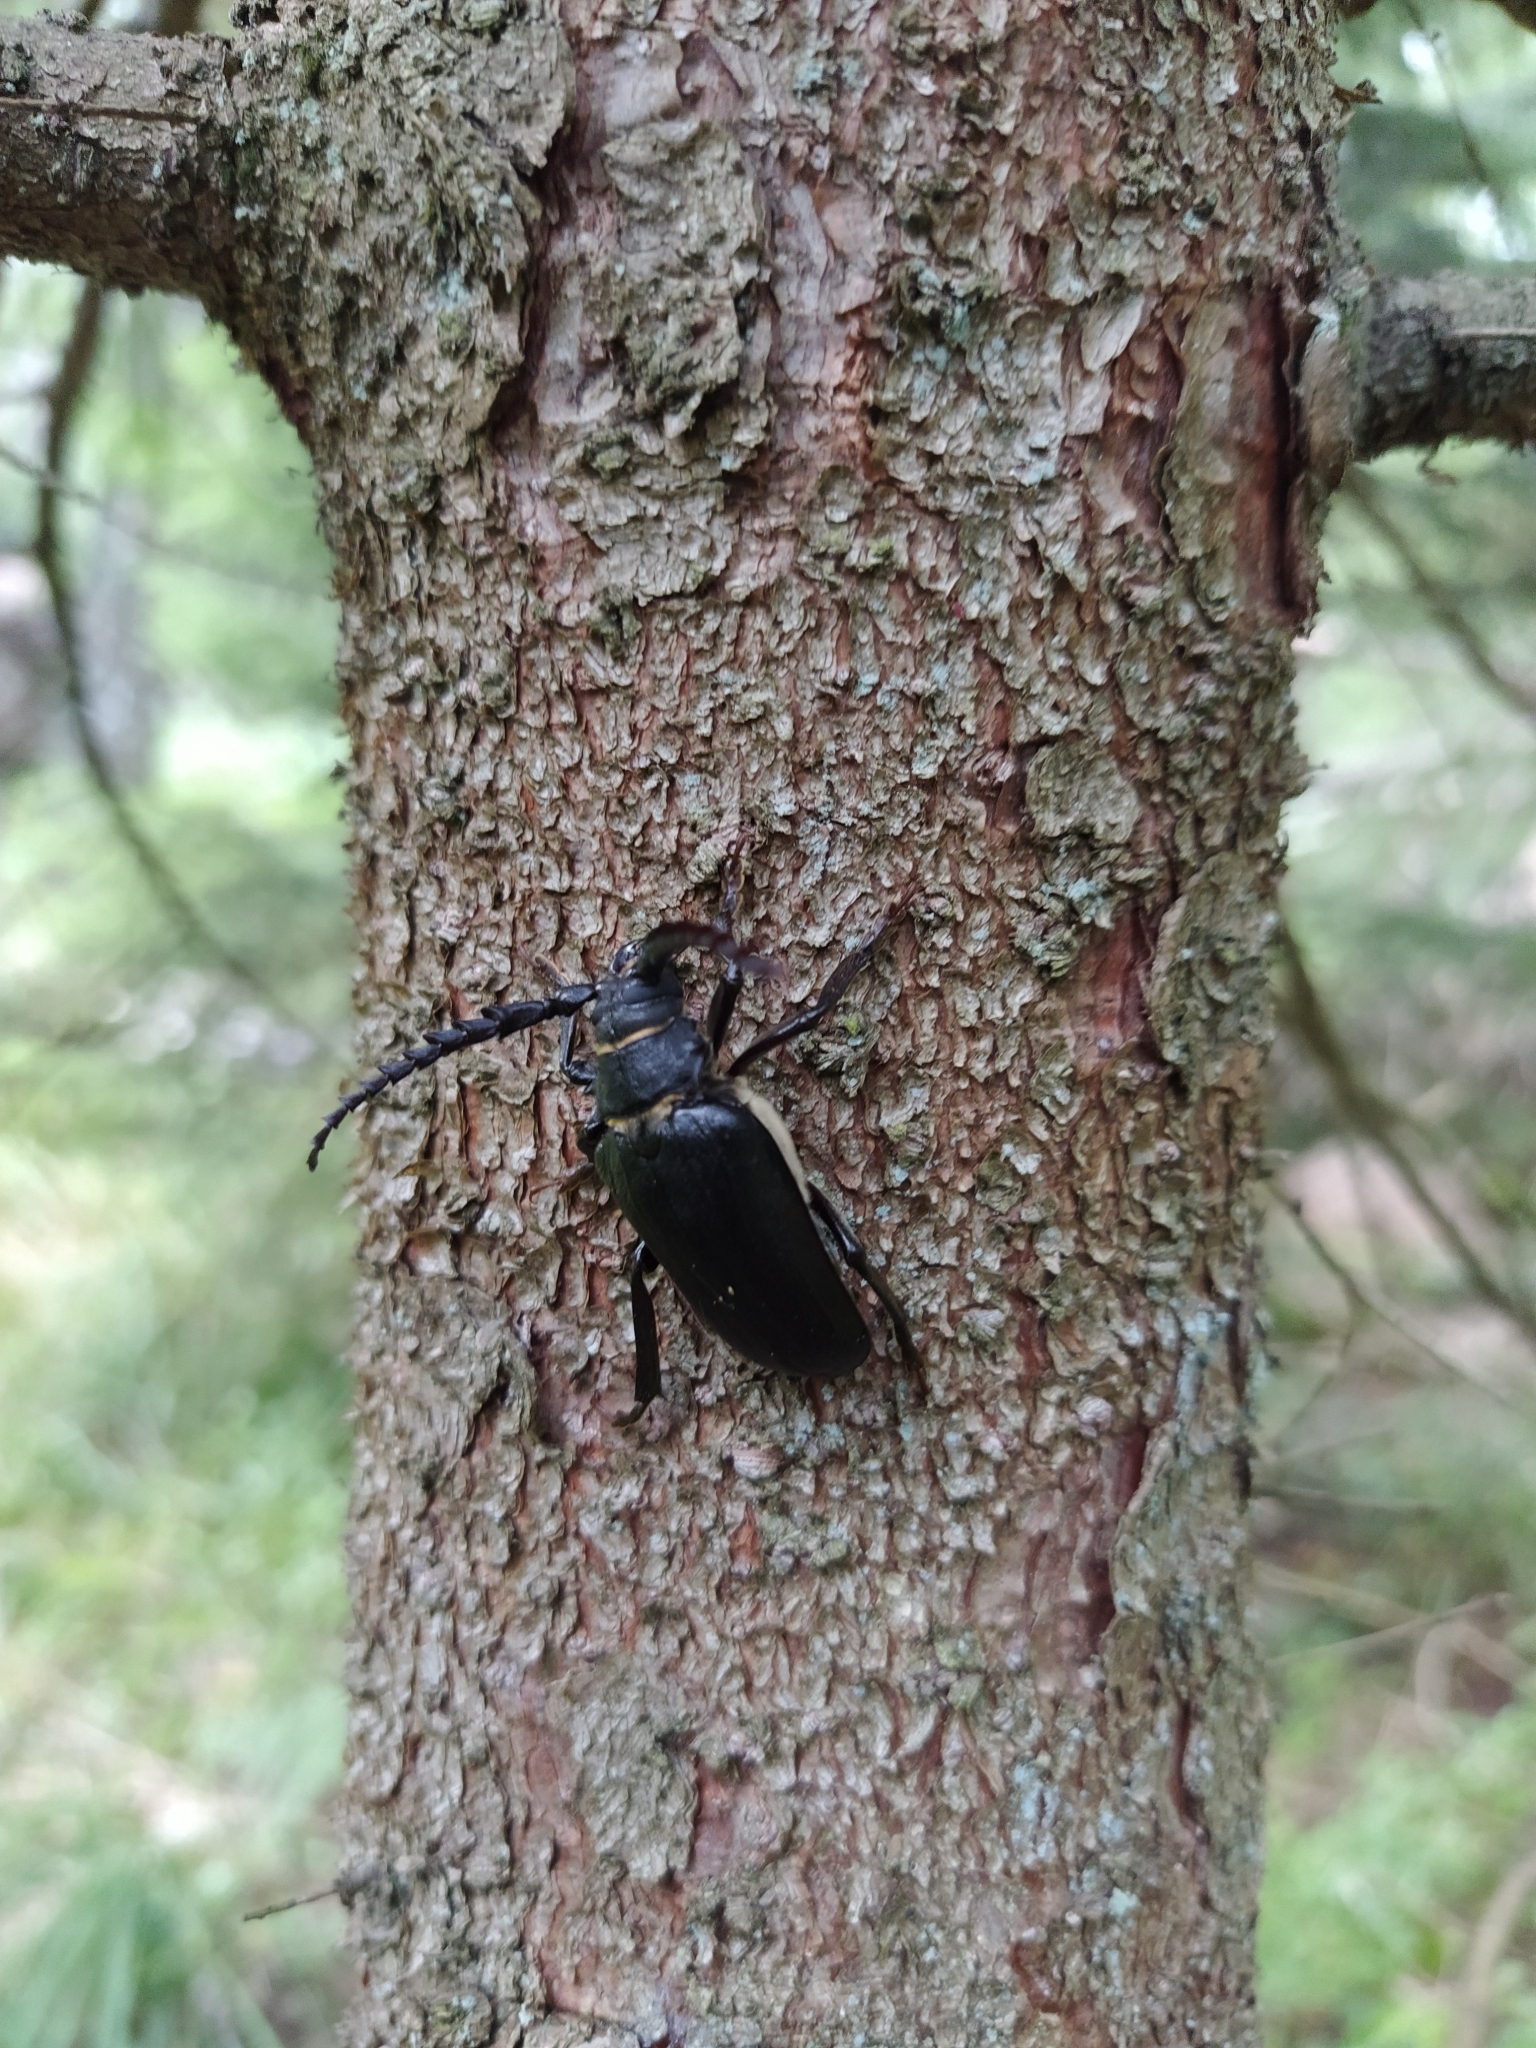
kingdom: Animalia
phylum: Arthropoda
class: Insecta
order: Coleoptera
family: Cerambycidae
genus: Prionus
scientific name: Prionus coriarius
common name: Tanner beetle
